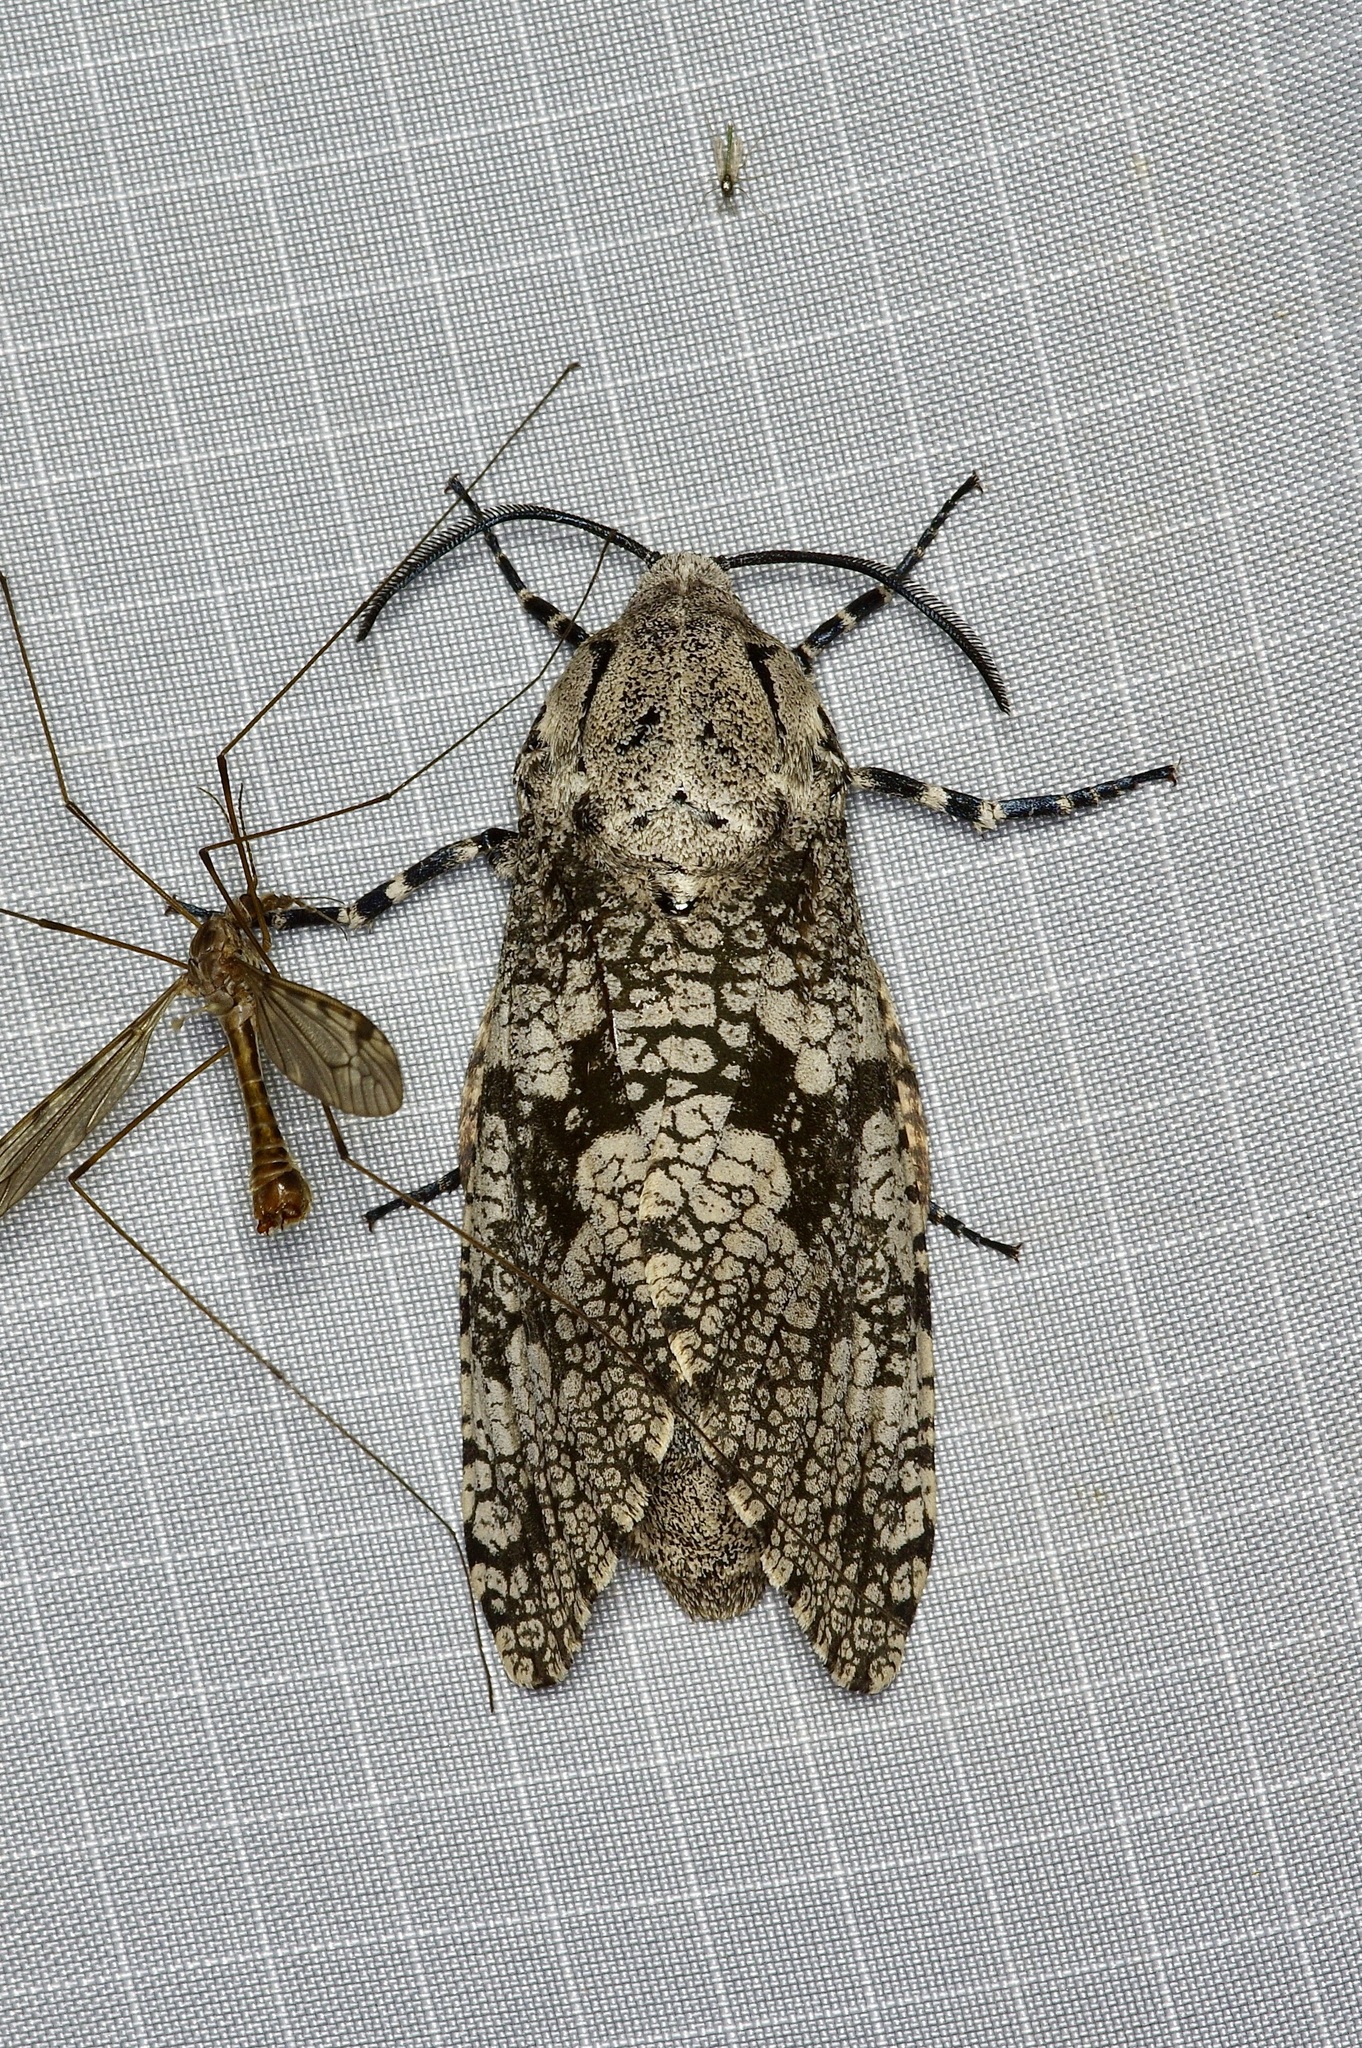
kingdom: Animalia
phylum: Arthropoda
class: Insecta
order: Lepidoptera
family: Cossidae
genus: Prionoxystus
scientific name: Prionoxystus robiniae
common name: Carpenterworm
